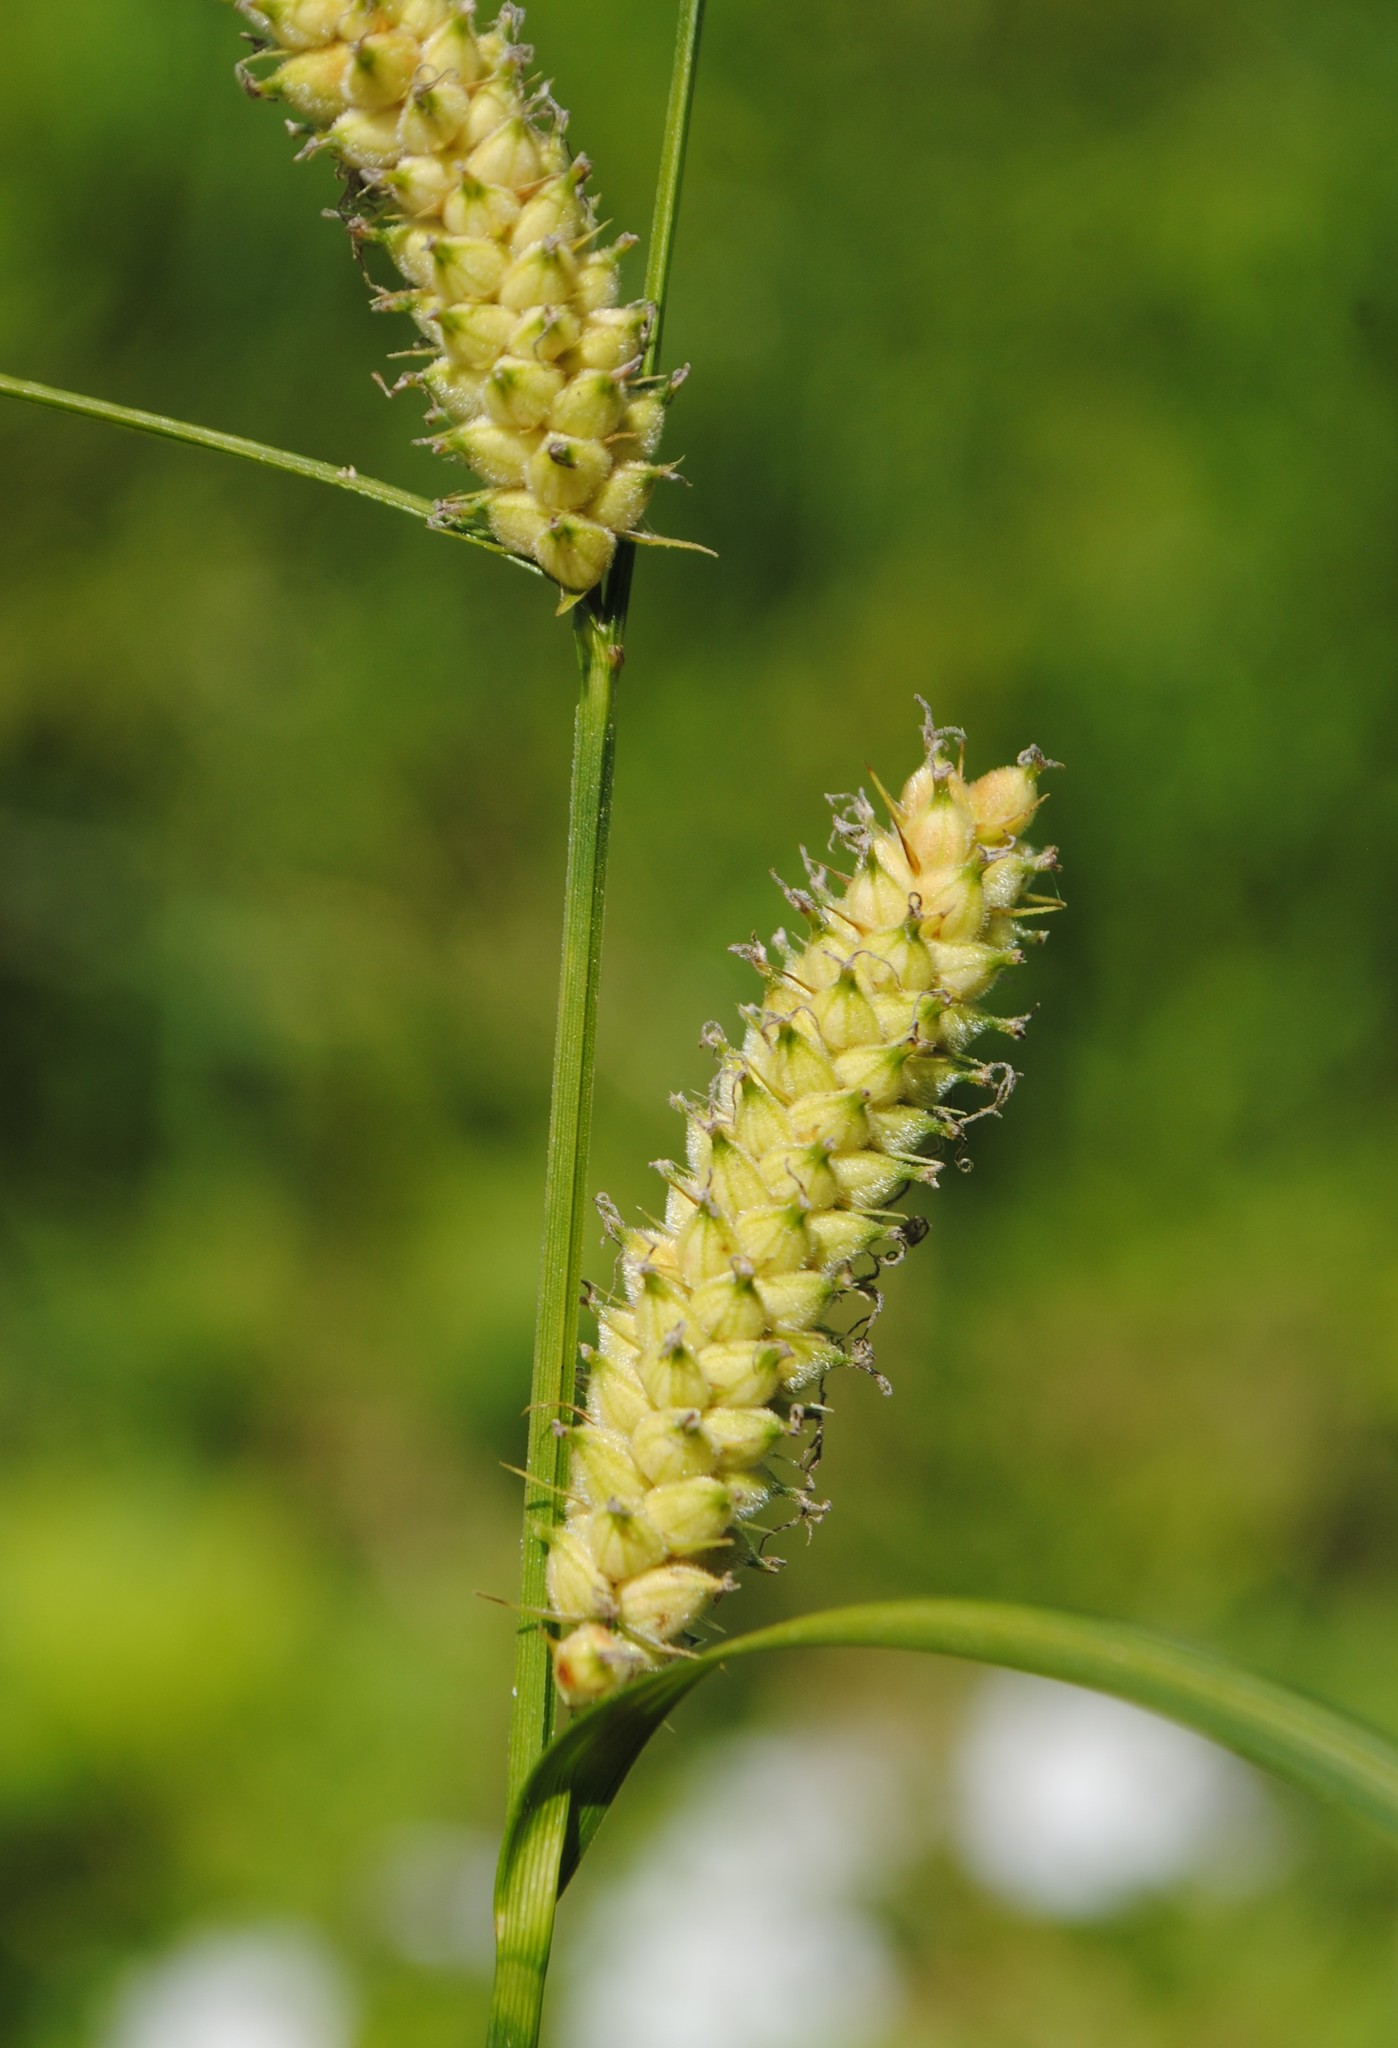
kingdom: Plantae
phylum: Tracheophyta
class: Liliopsida
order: Poales
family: Cyperaceae
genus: Carex
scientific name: Carex pellita
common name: Woolly sedge
